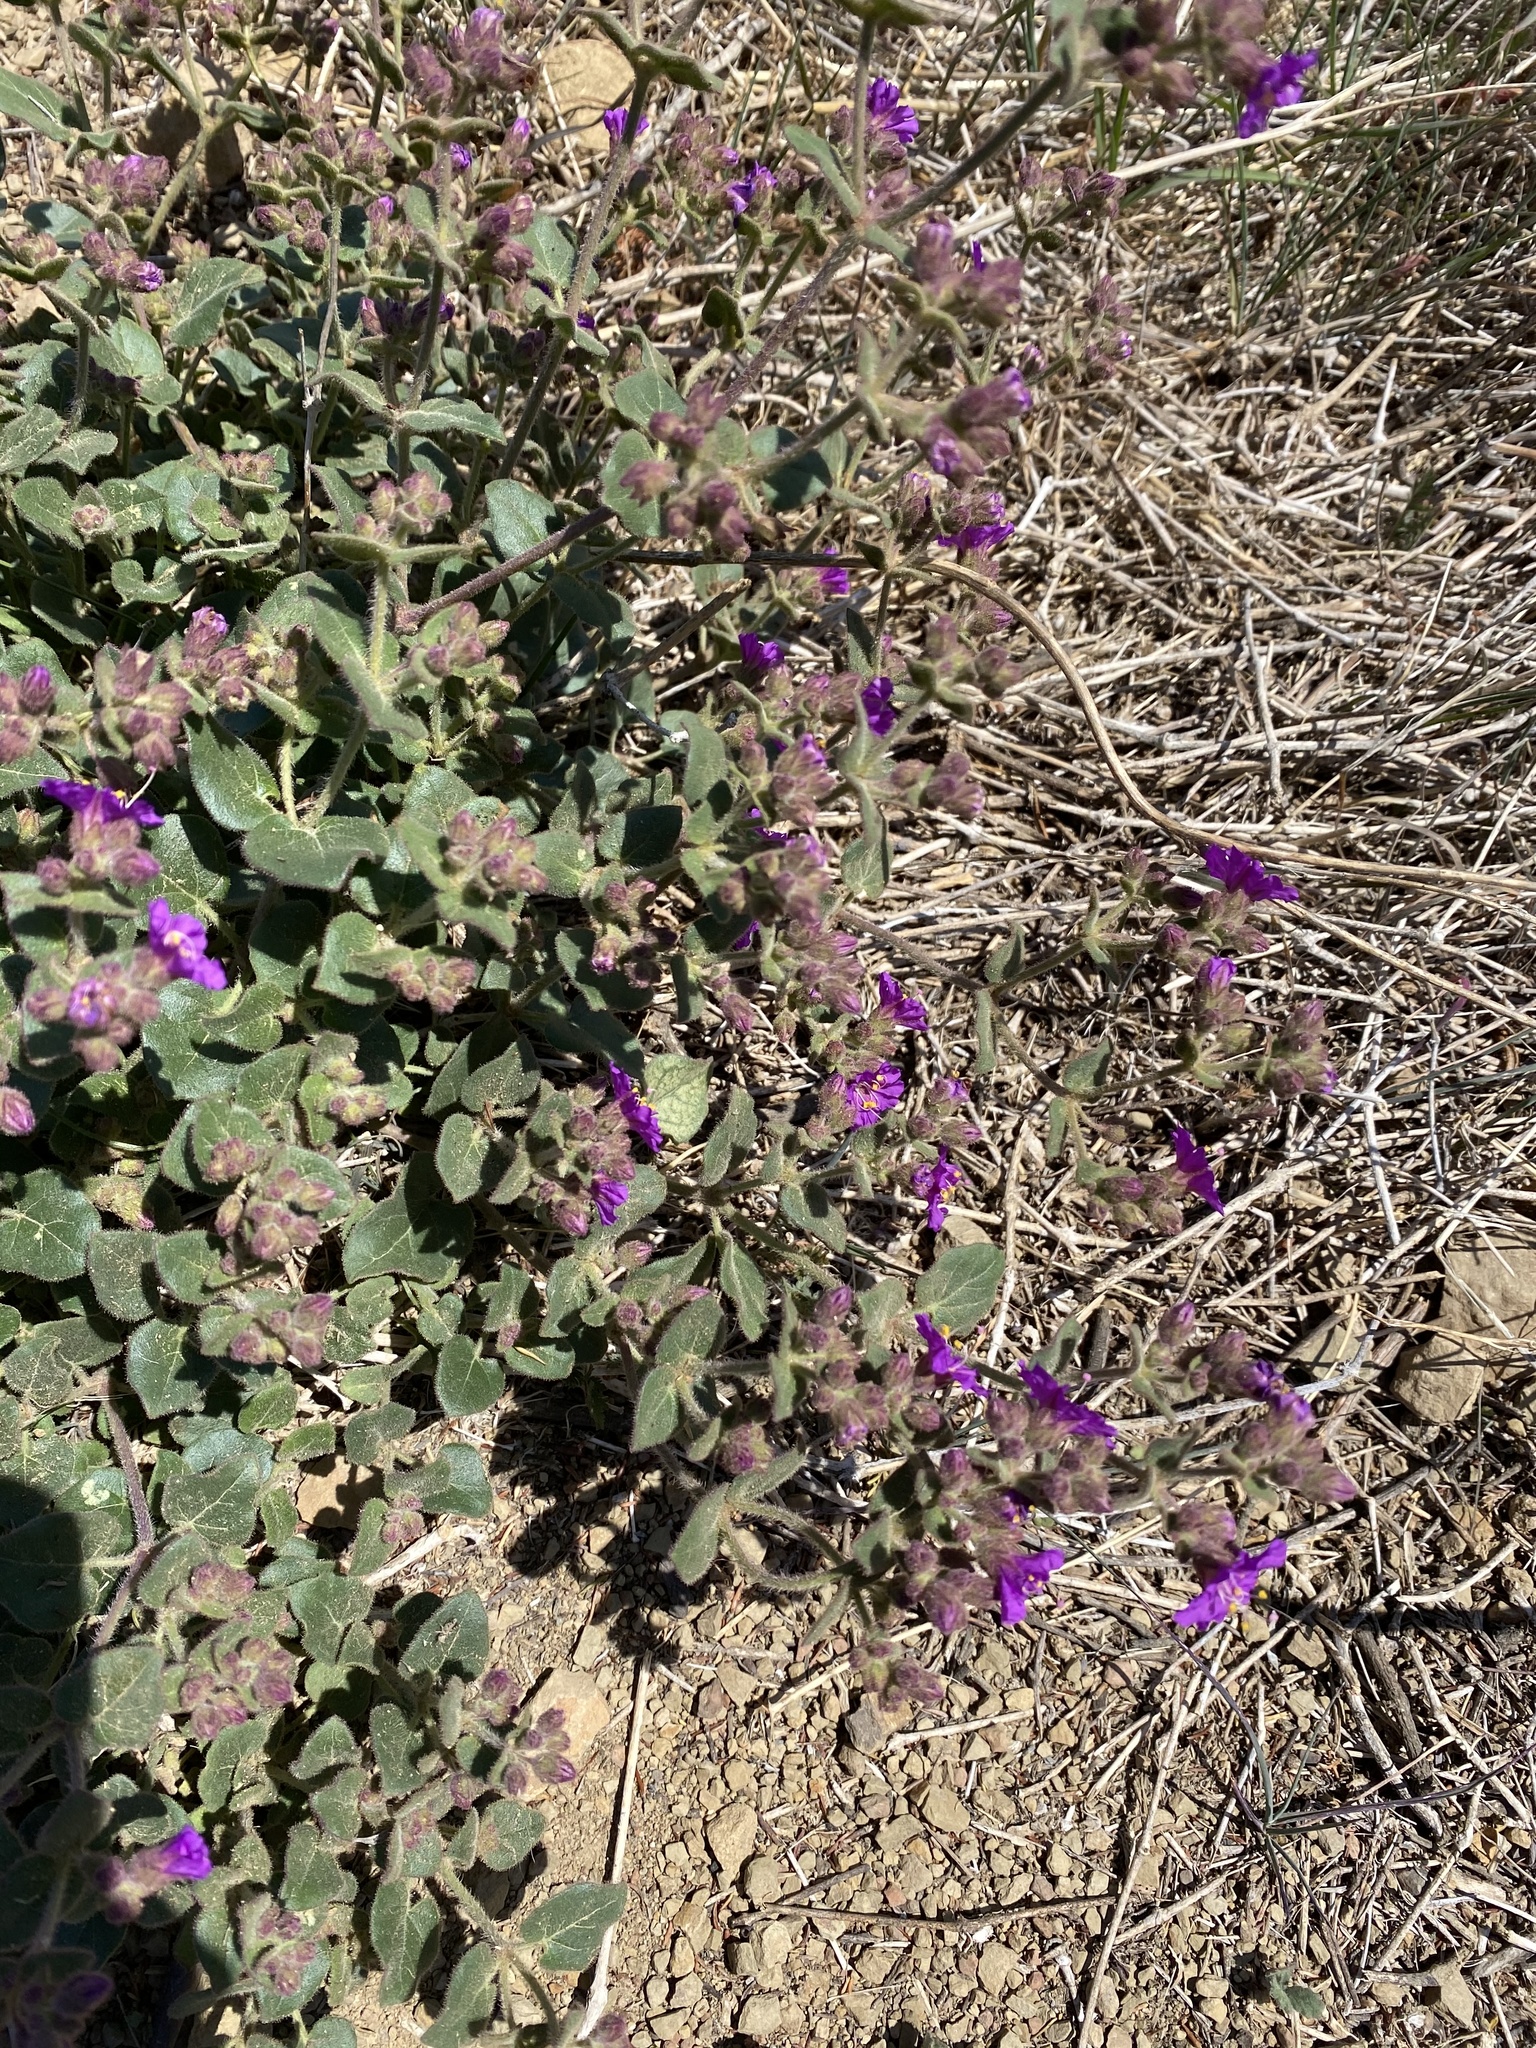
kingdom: Plantae
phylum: Tracheophyta
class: Magnoliopsida
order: Caryophyllales
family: Nyctaginaceae
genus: Mirabilis
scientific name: Mirabilis laevis
